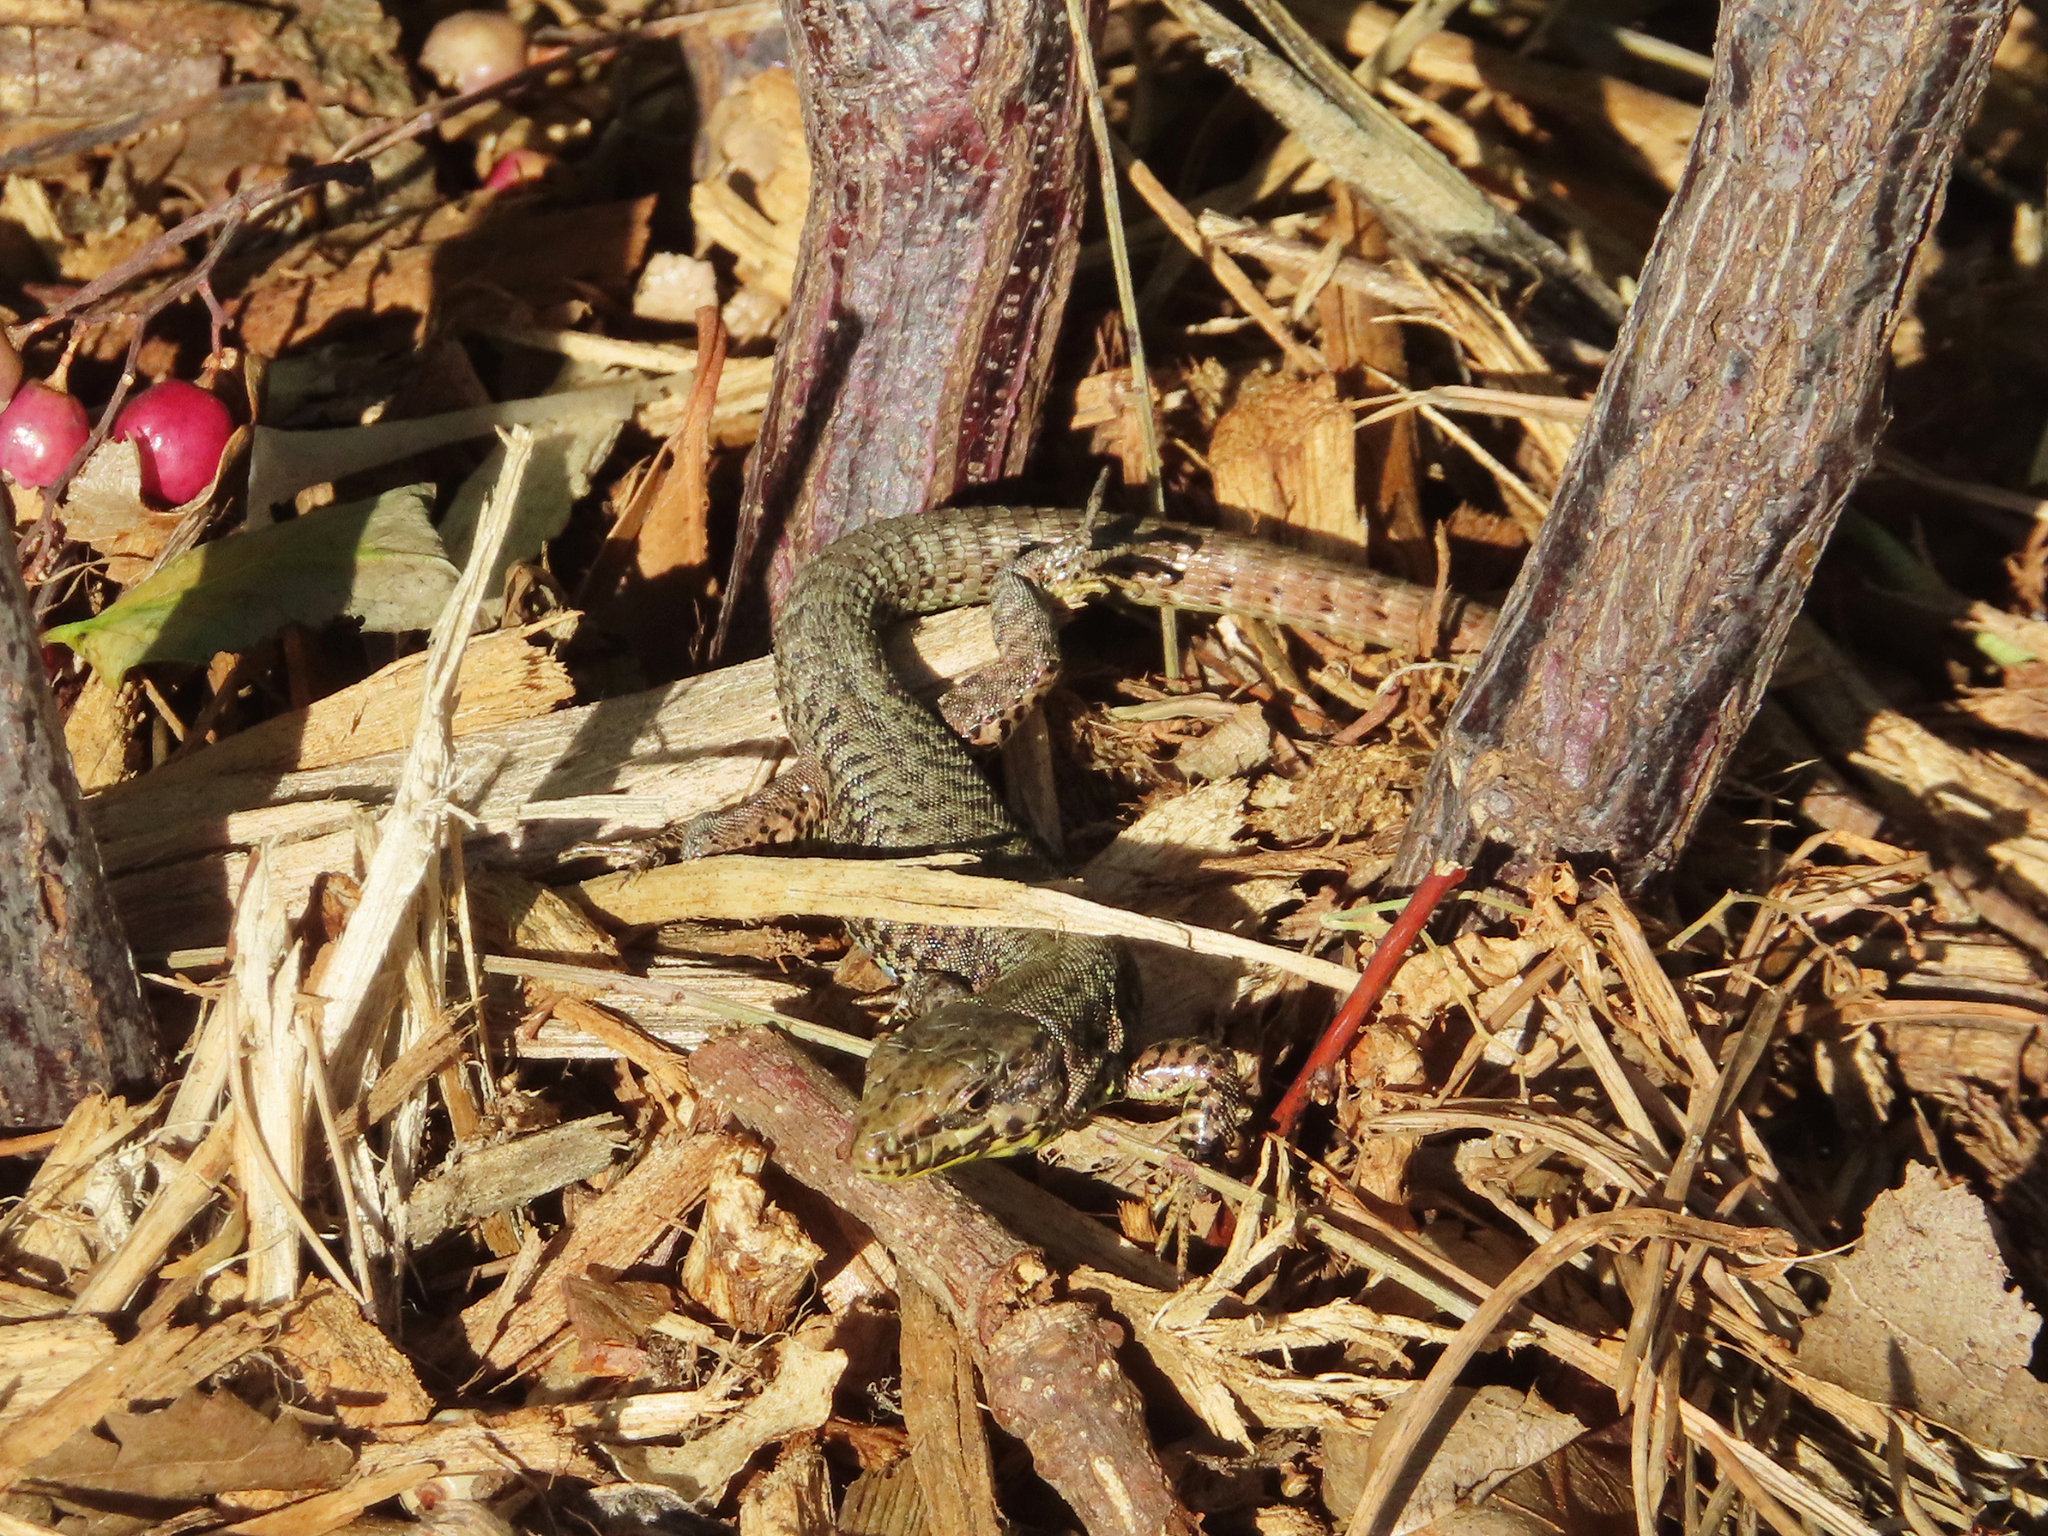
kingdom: Animalia
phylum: Chordata
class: Squamata
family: Lacertidae
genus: Podarcis
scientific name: Podarcis muralis
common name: Common wall lizard
